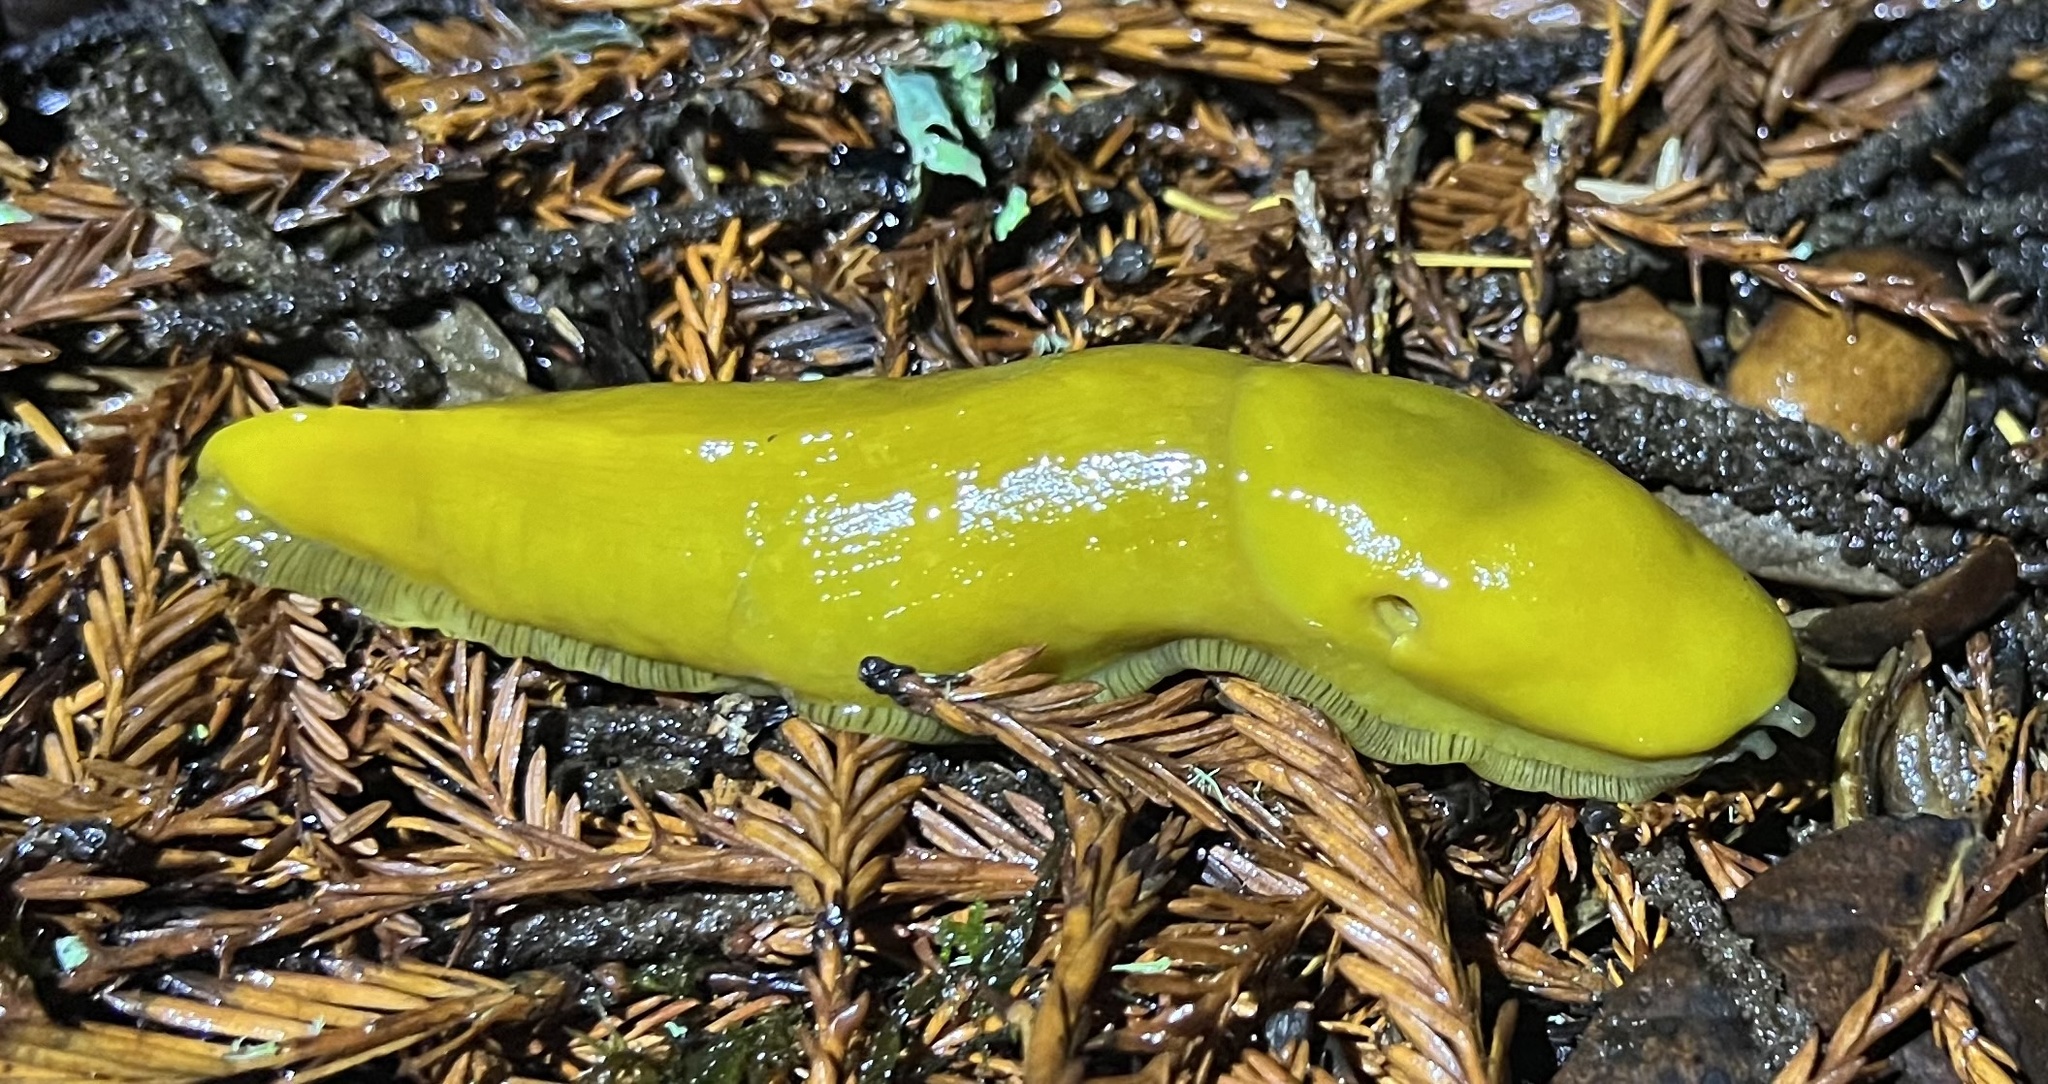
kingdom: Animalia
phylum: Mollusca
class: Gastropoda
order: Stylommatophora
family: Ariolimacidae
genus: Ariolimax
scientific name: Ariolimax californicus
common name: California banana slug
